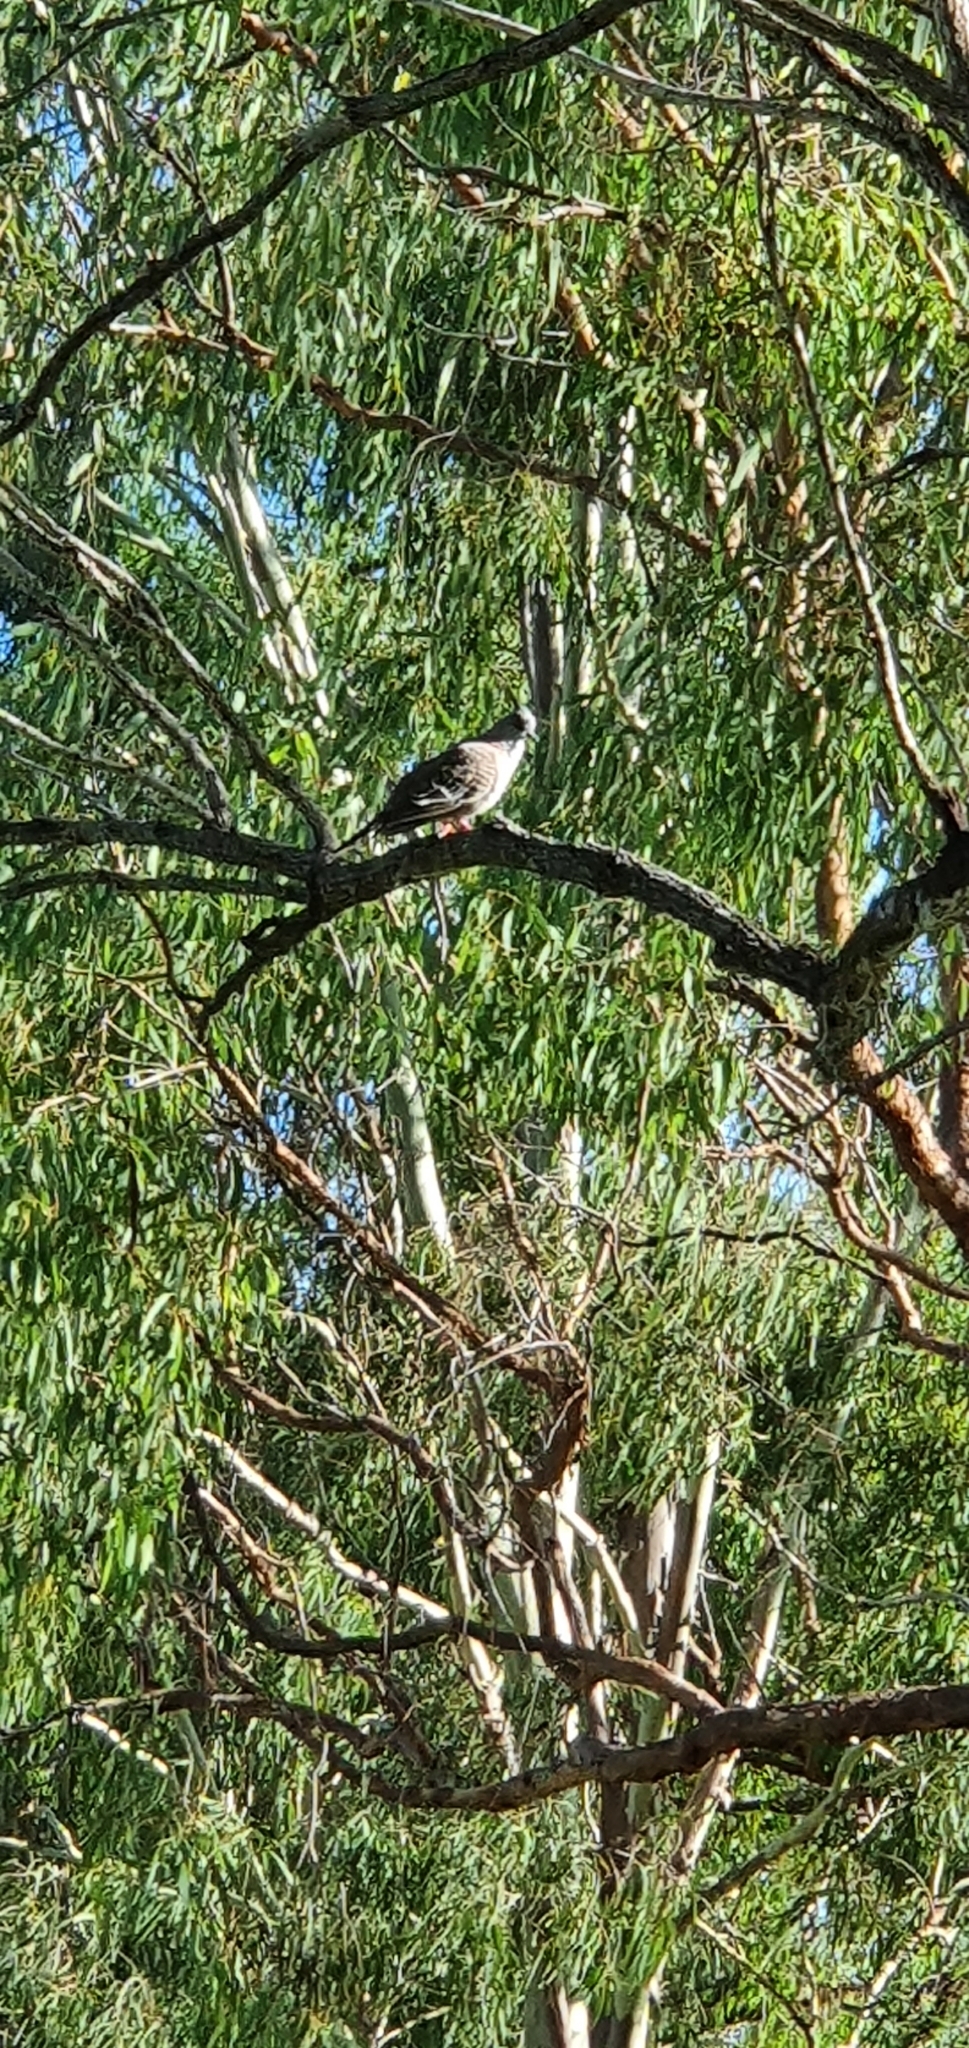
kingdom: Animalia
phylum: Chordata
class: Aves
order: Columbiformes
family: Columbidae
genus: Ocyphaps
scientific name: Ocyphaps lophotes
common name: Crested pigeon
